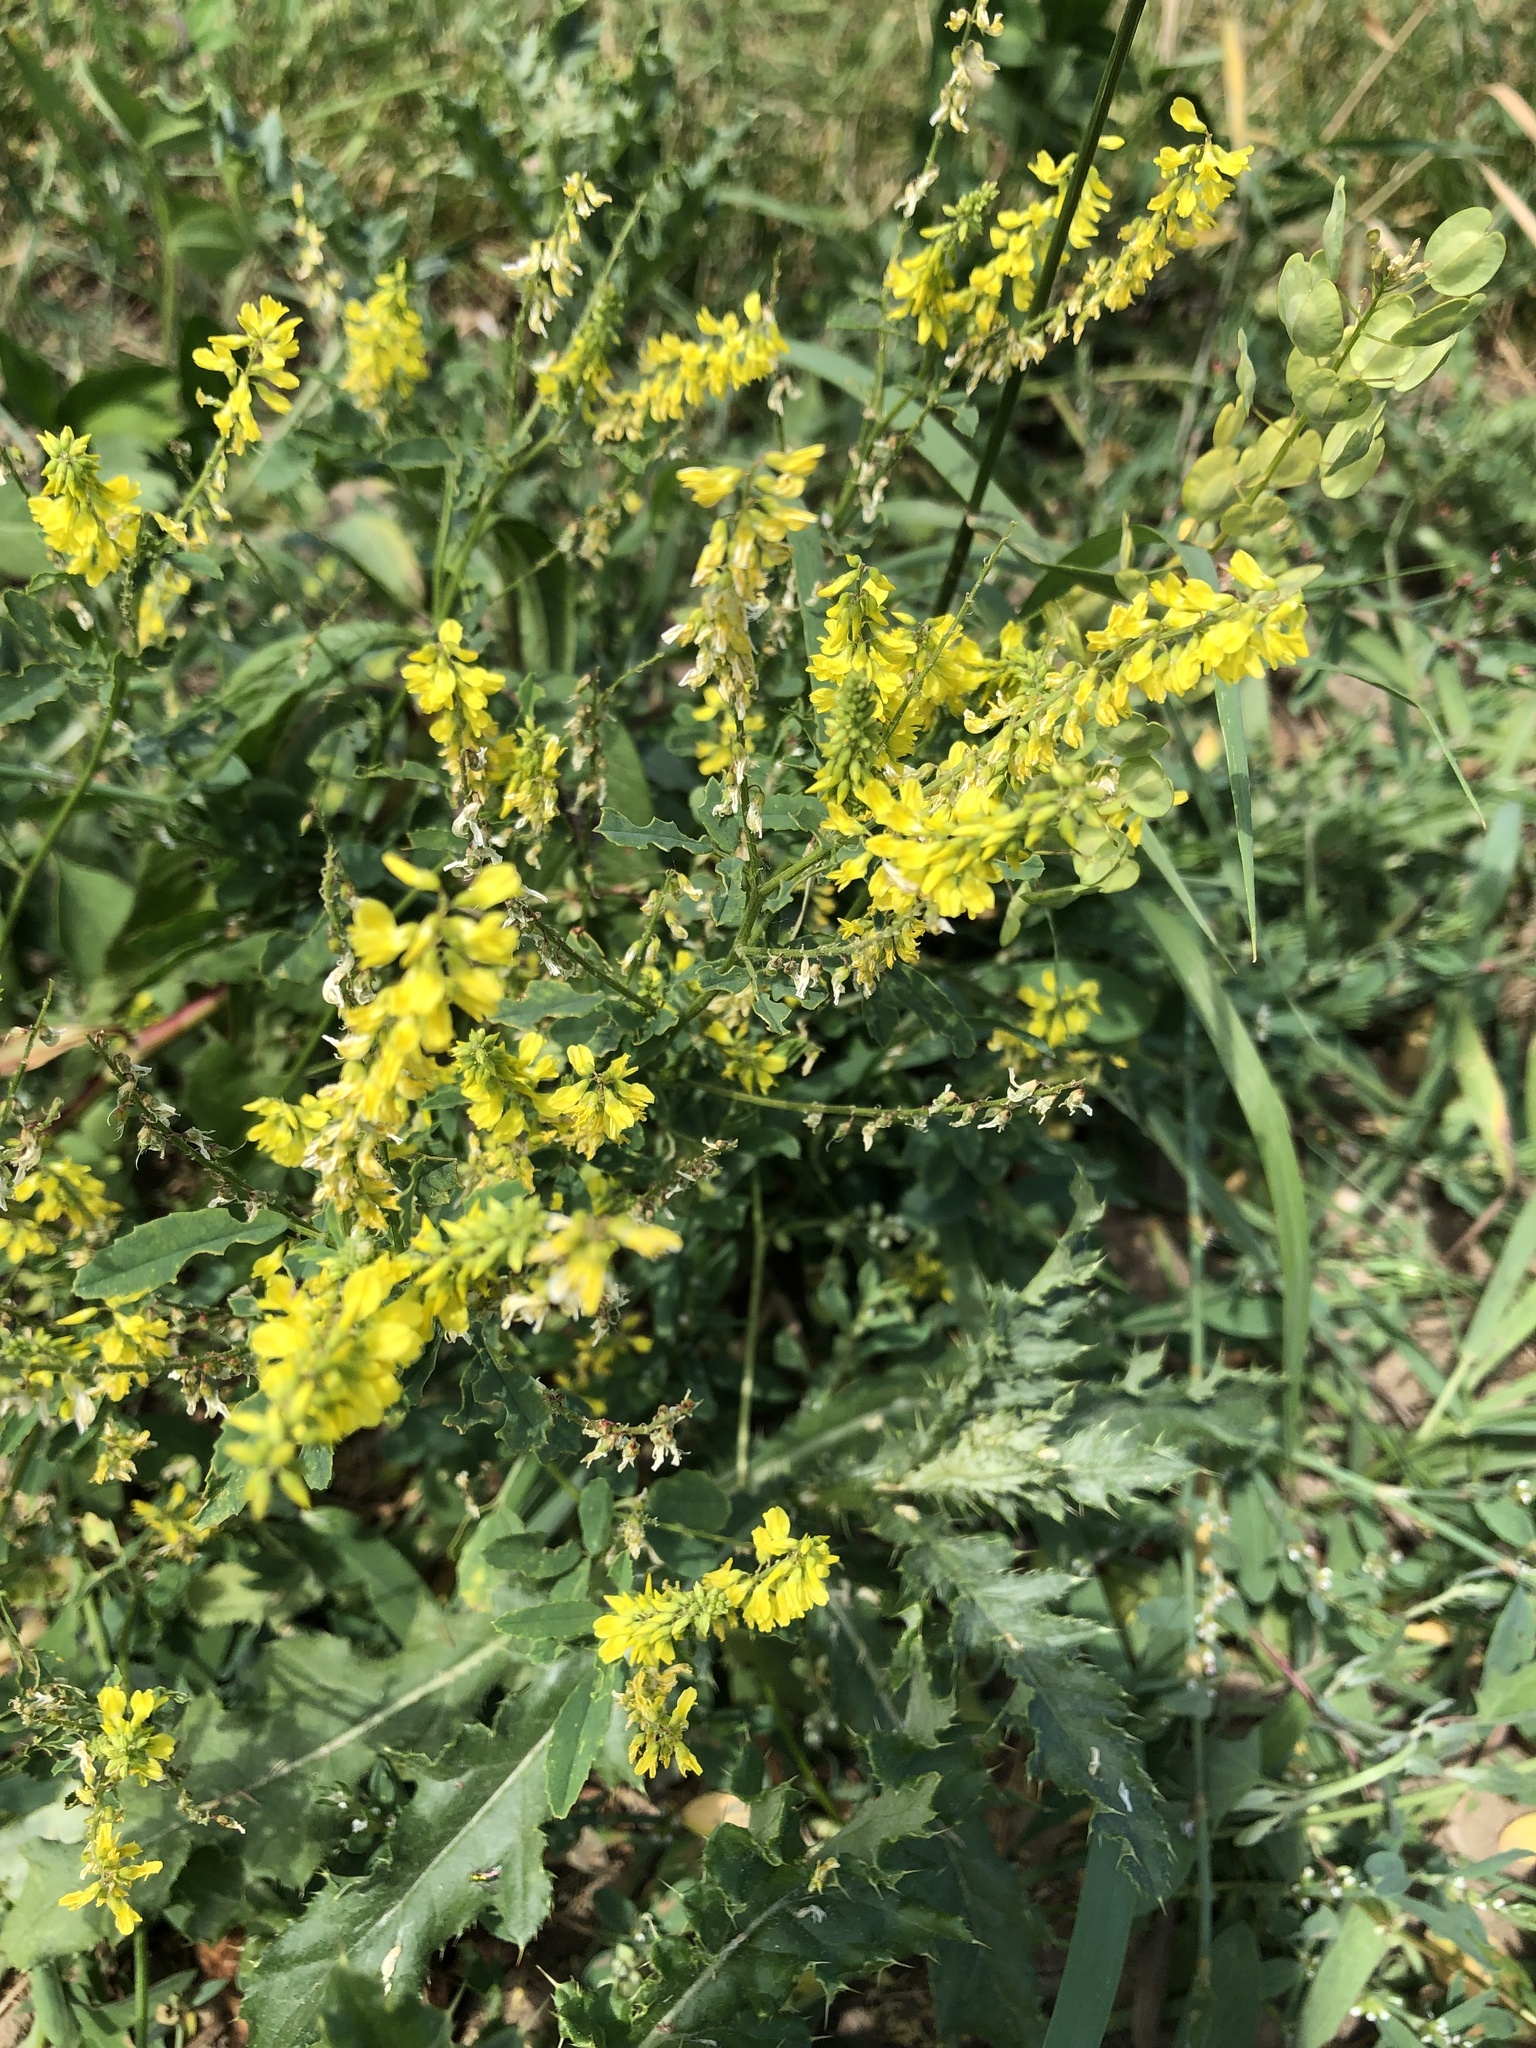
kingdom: Plantae
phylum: Tracheophyta
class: Magnoliopsida
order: Fabales
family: Fabaceae
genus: Melilotus
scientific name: Melilotus officinalis
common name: Sweetclover
